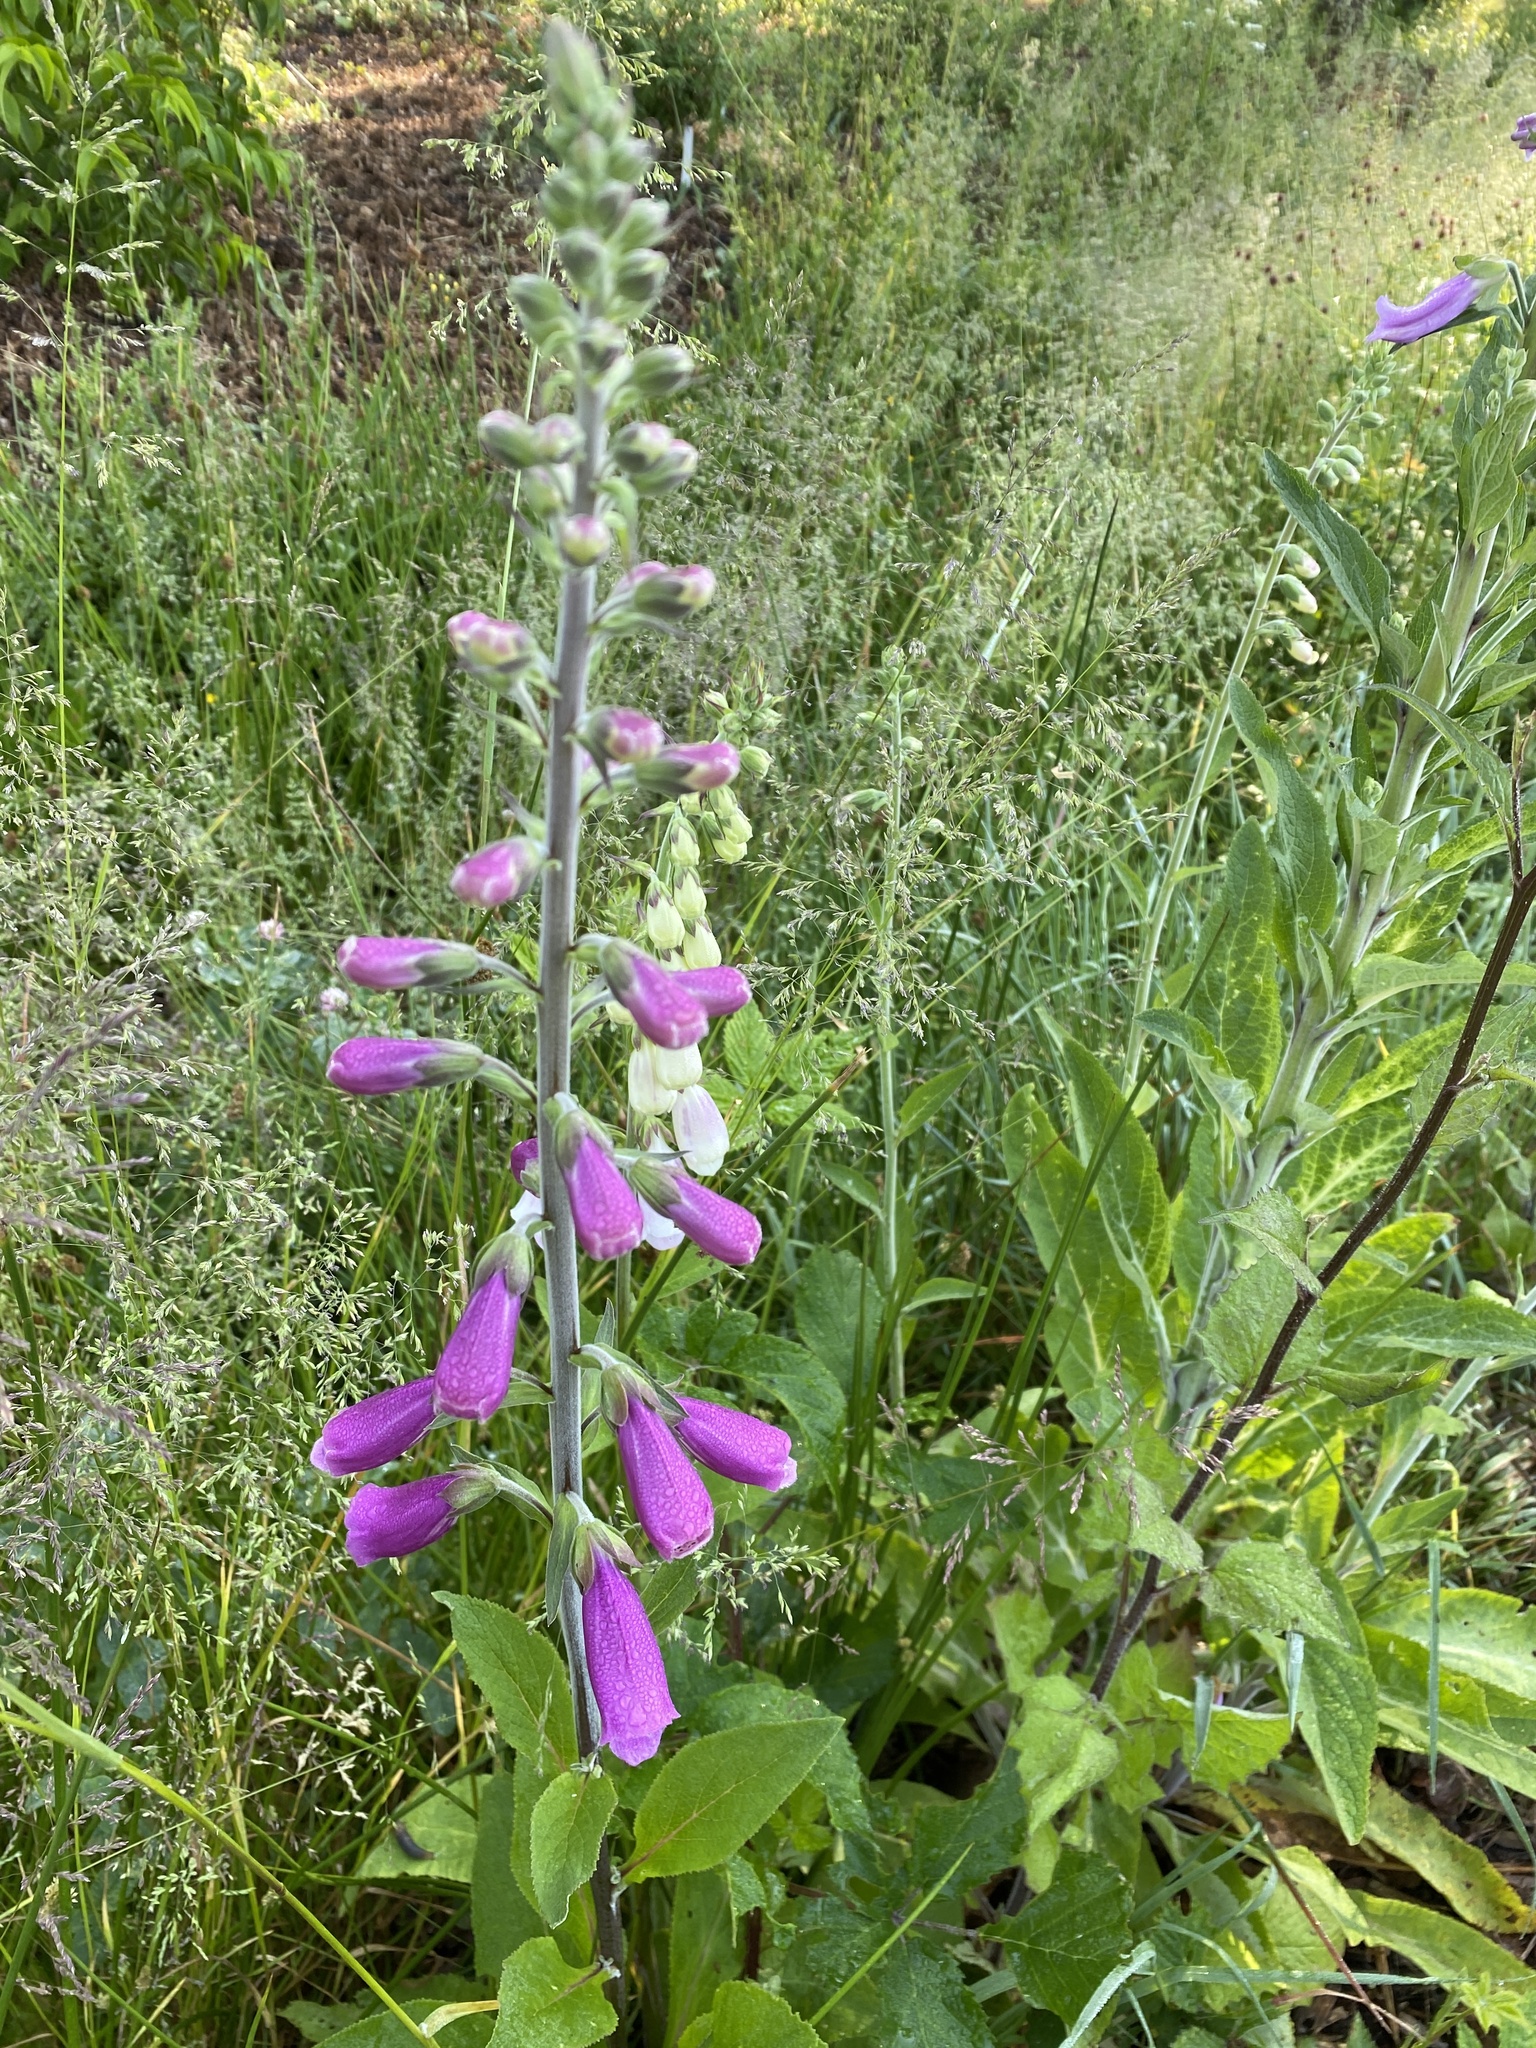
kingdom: Plantae
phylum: Tracheophyta
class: Magnoliopsida
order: Lamiales
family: Plantaginaceae
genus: Digitalis
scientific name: Digitalis purpurea
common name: Foxglove
